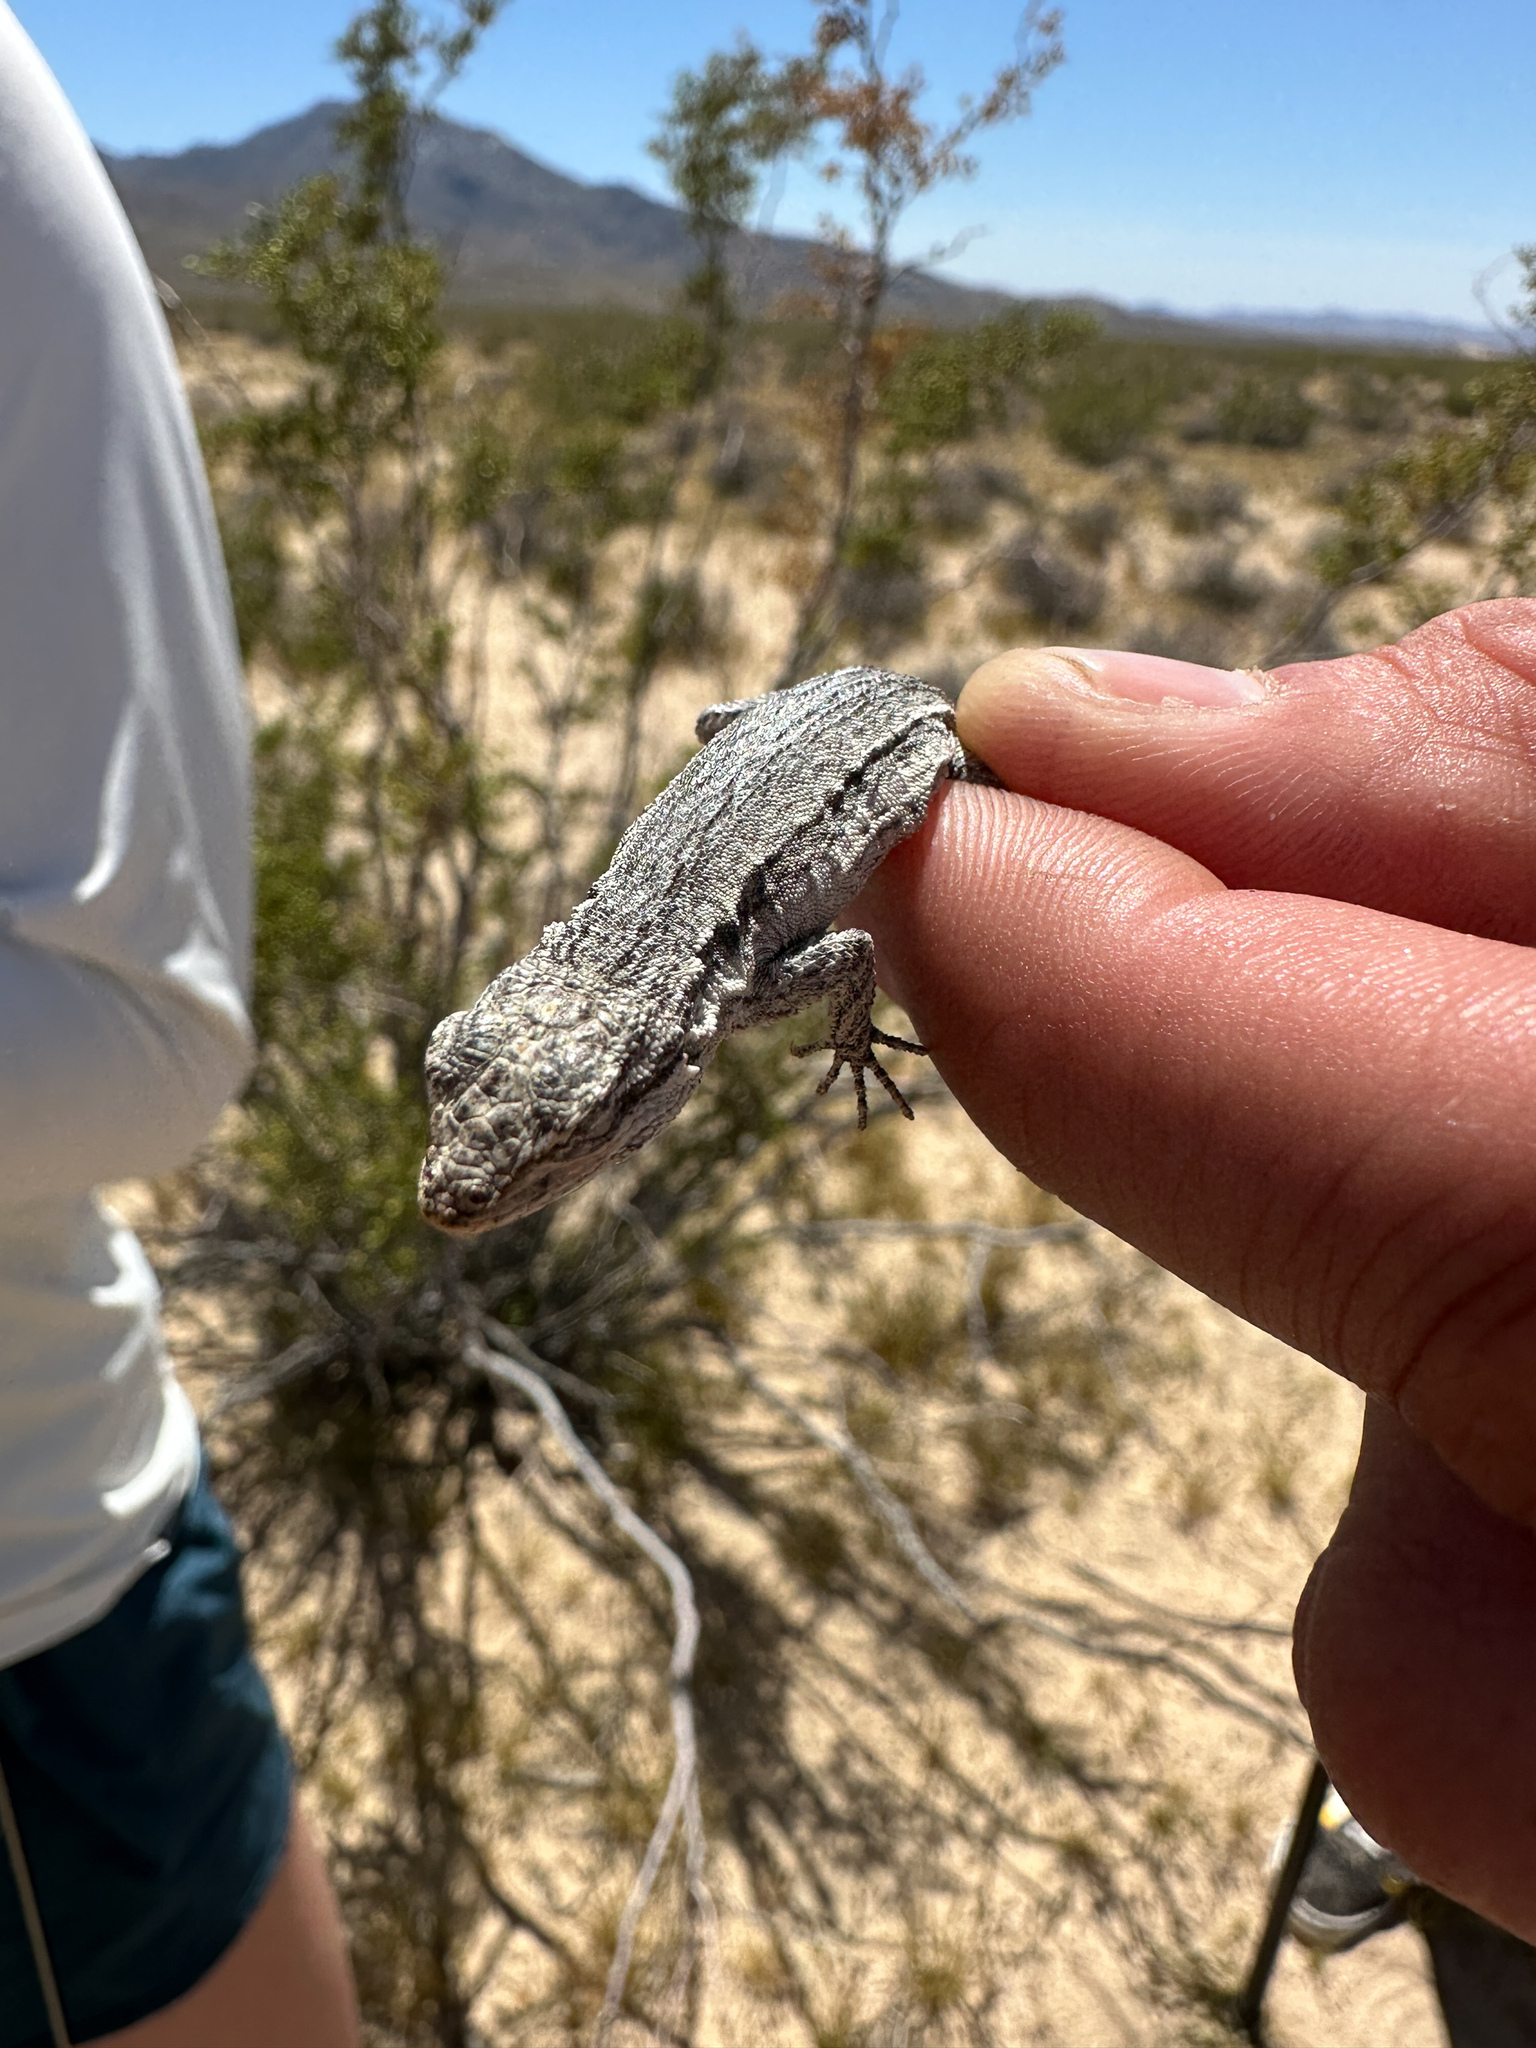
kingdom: Animalia
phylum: Chordata
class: Squamata
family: Phrynosomatidae
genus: Urosaurus
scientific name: Urosaurus graciosus
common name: Long-tailed brush lizard
